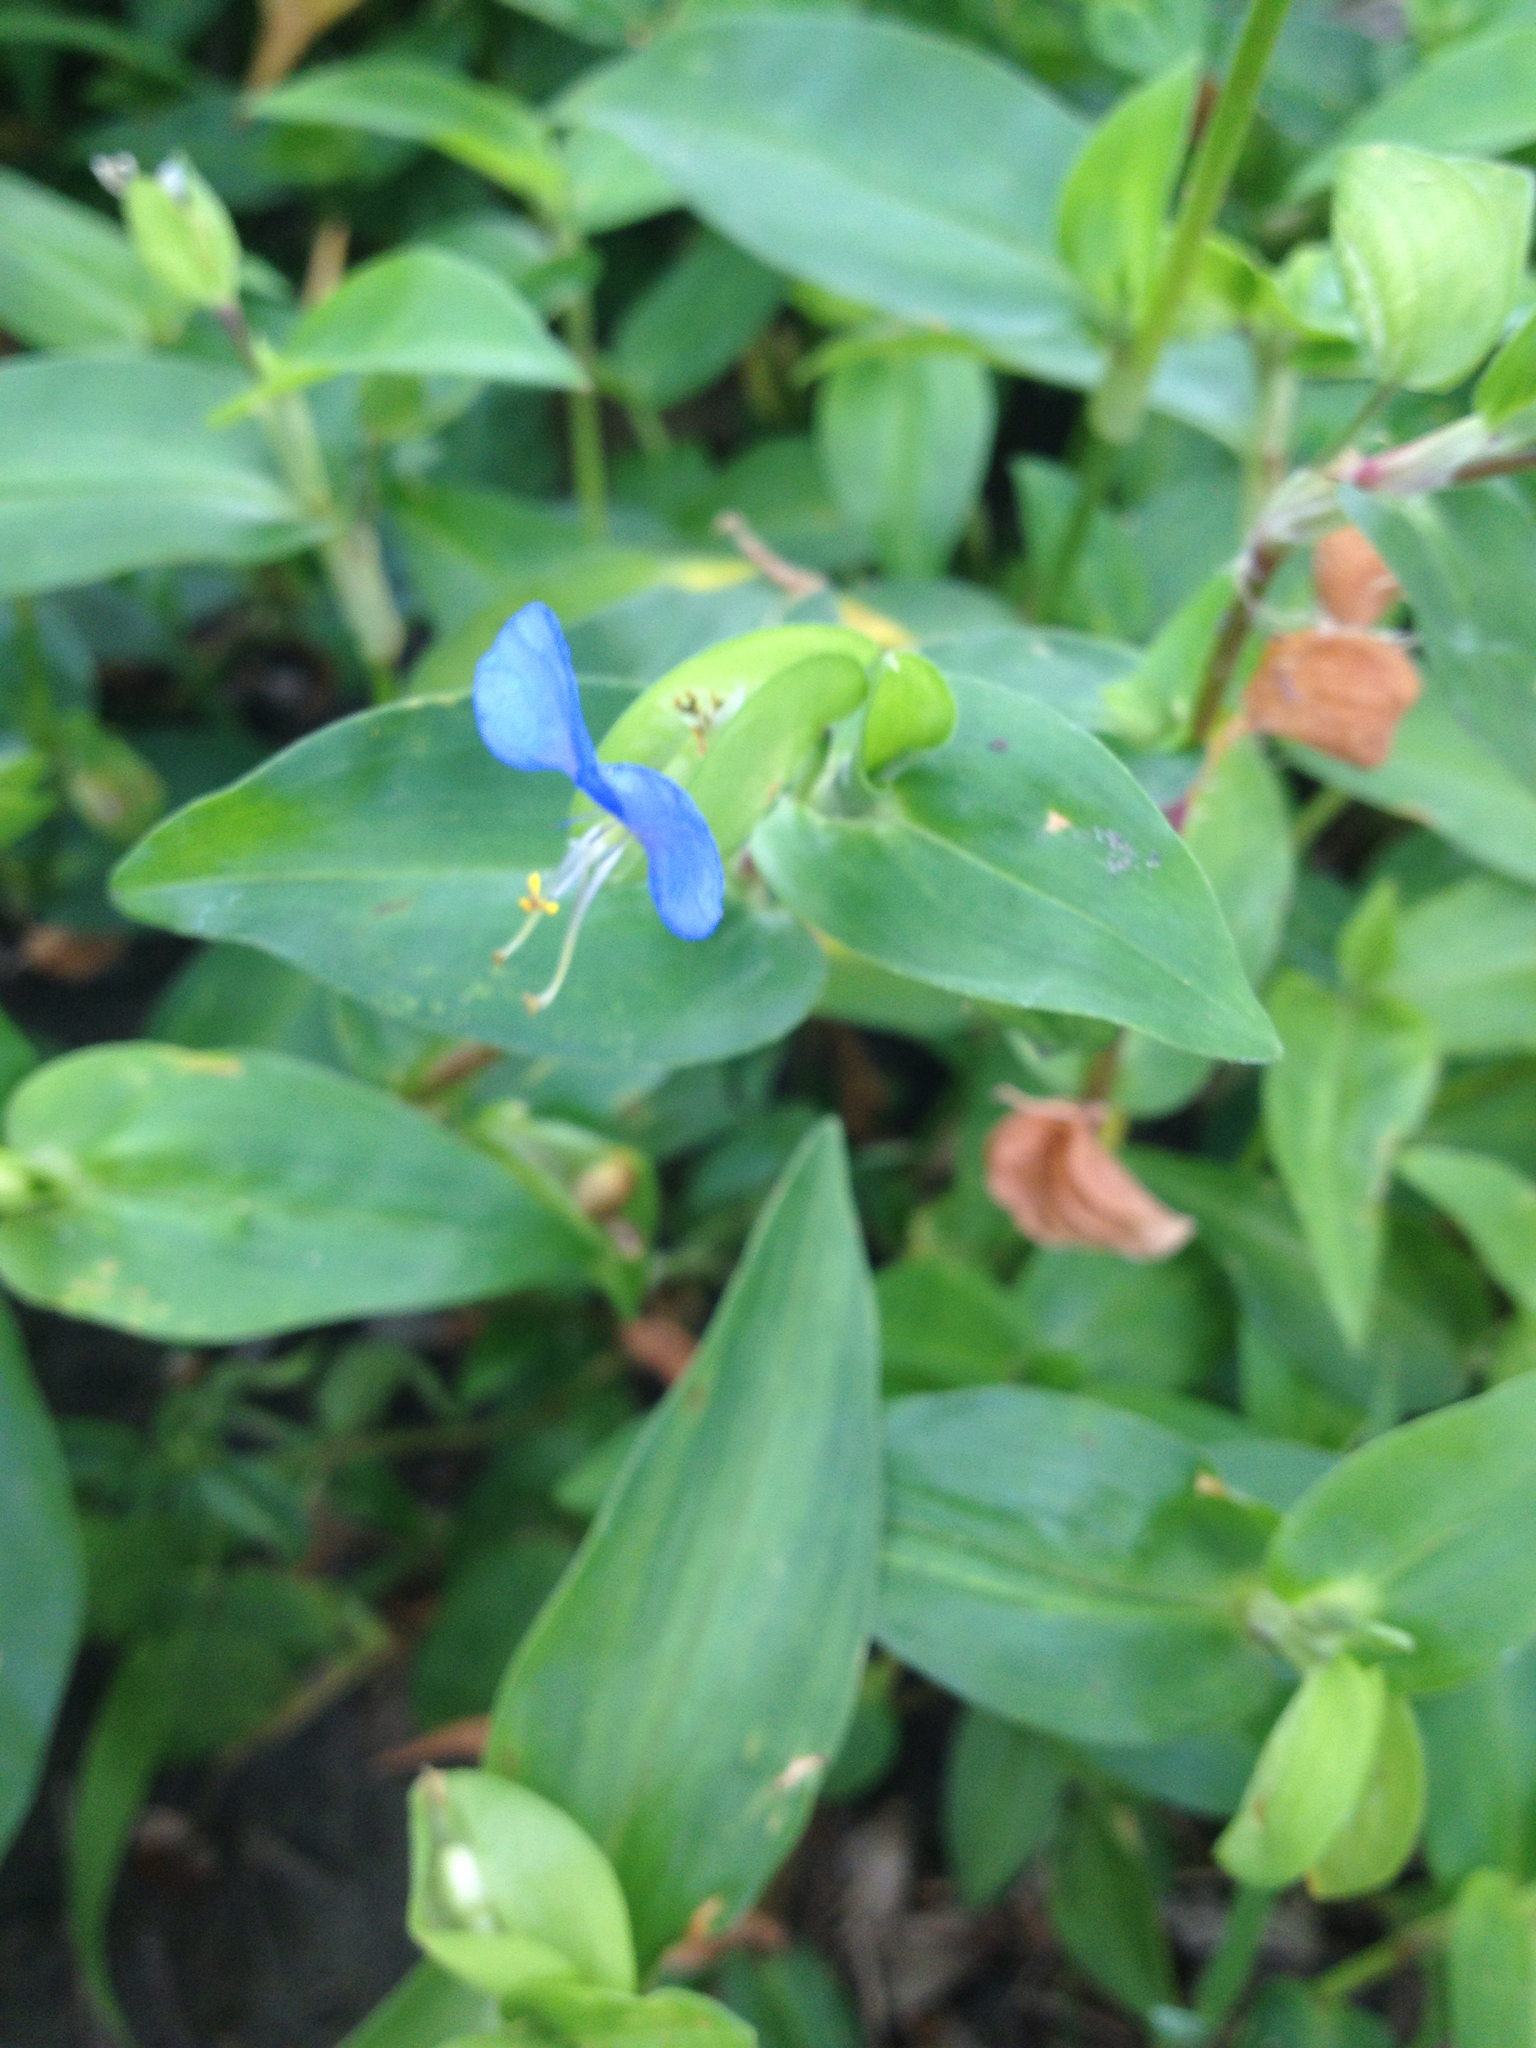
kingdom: Plantae
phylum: Tracheophyta
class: Liliopsida
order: Commelinales
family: Commelinaceae
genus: Commelina
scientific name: Commelina communis
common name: Asiatic dayflower
